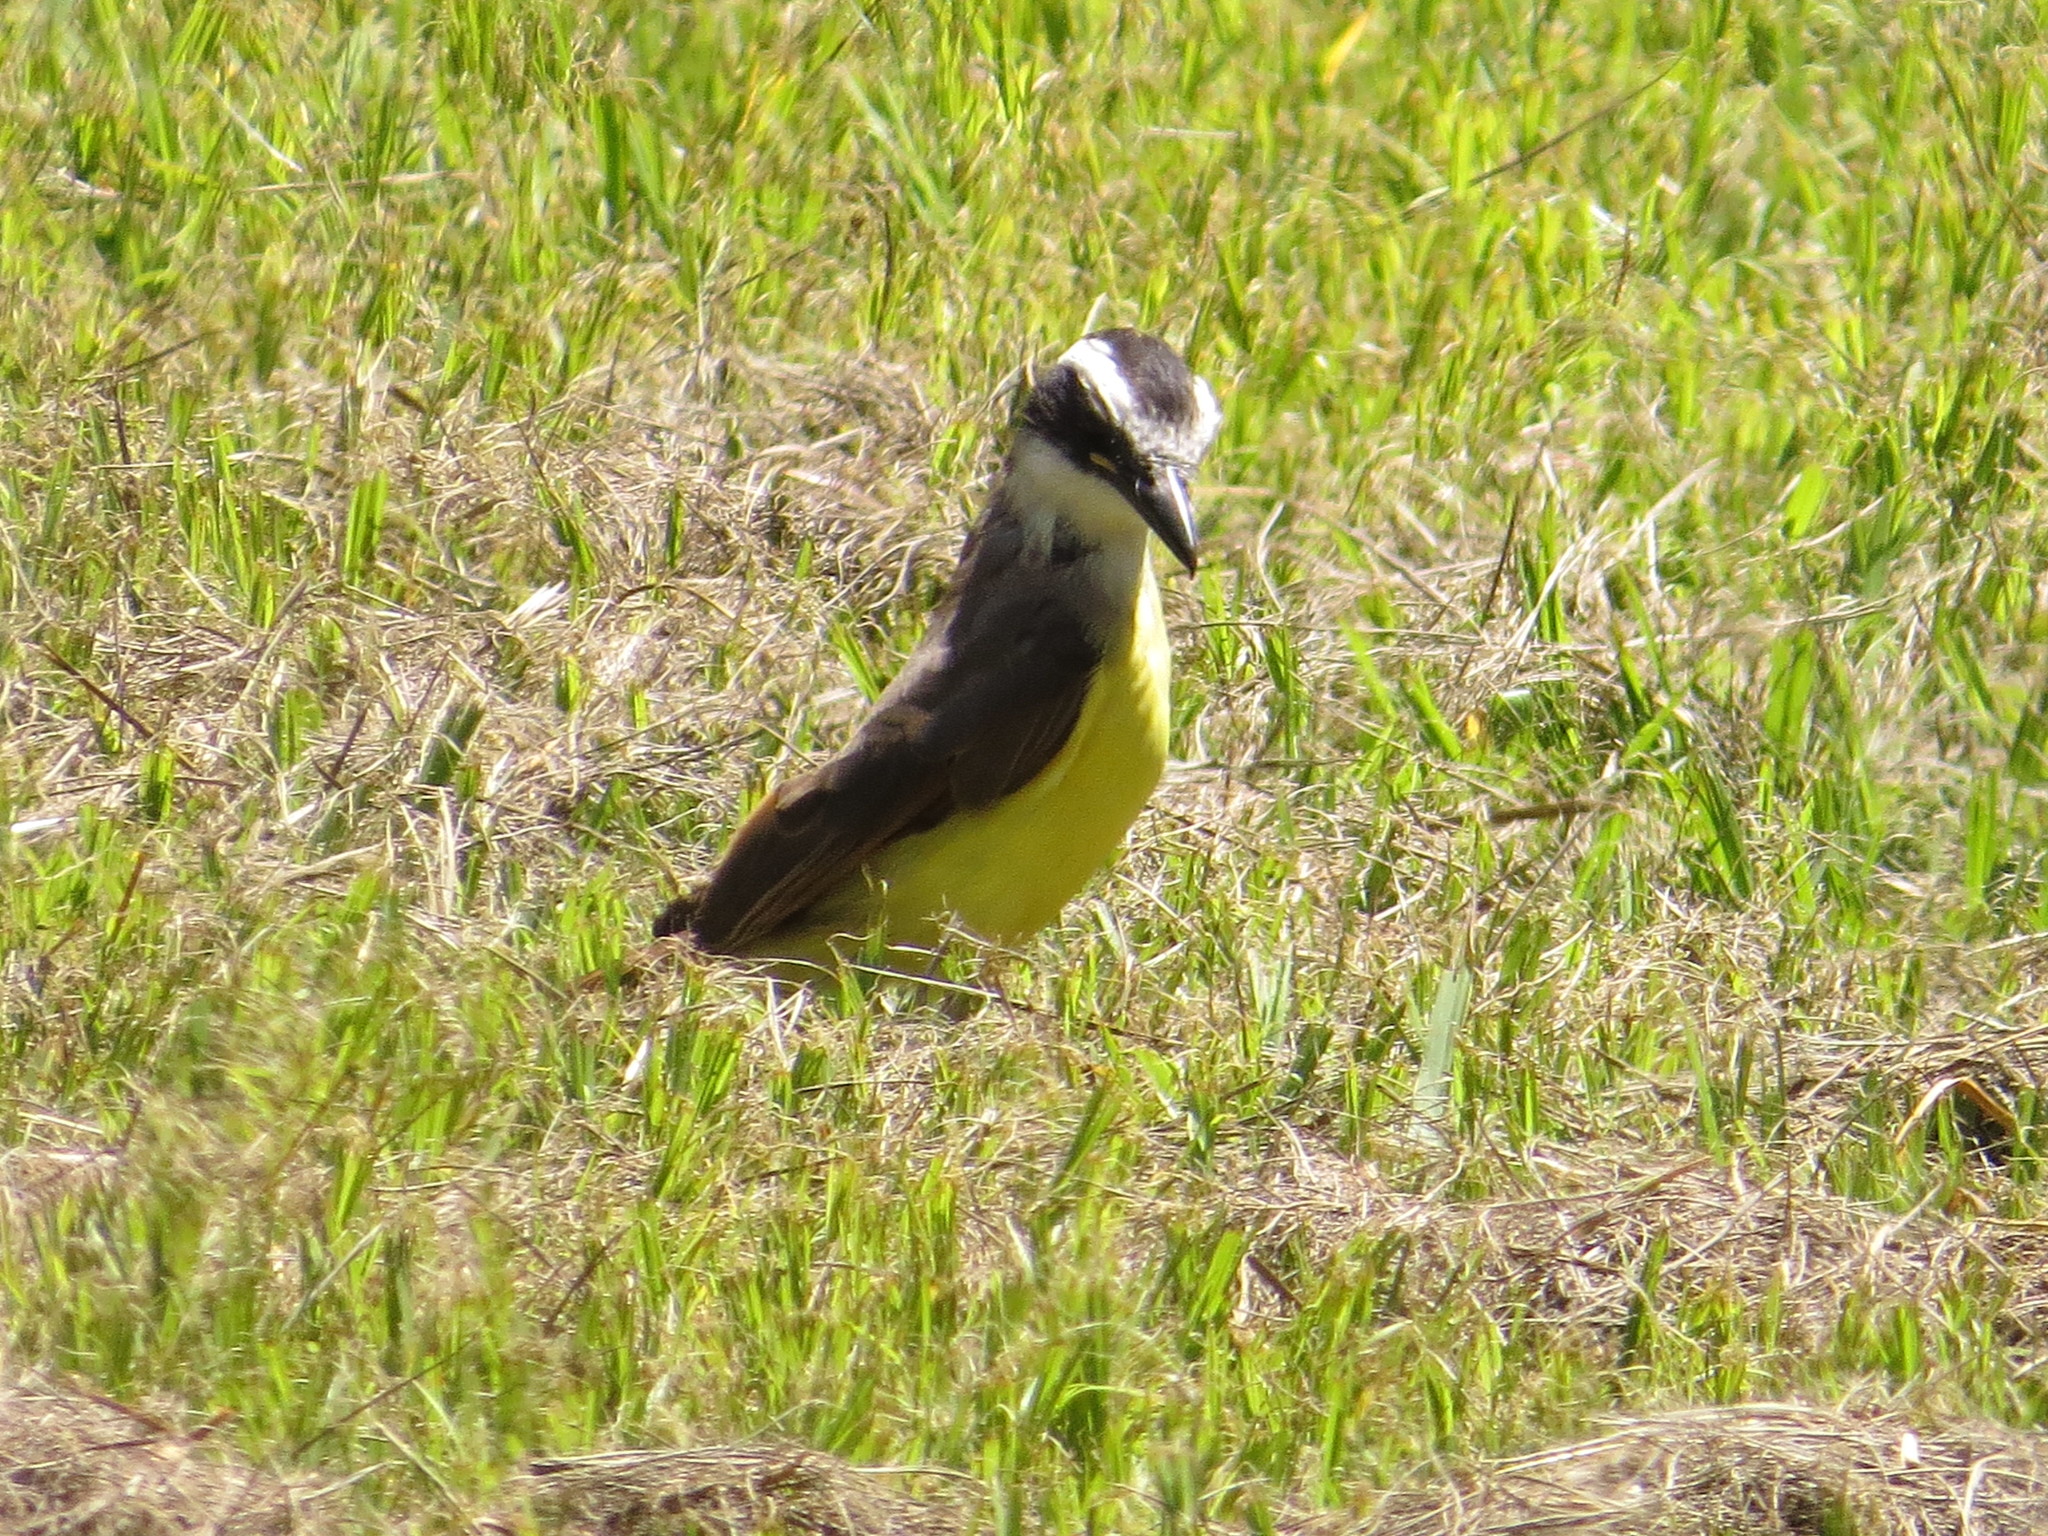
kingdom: Animalia
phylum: Chordata
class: Aves
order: Passeriformes
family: Tyrannidae
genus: Pitangus
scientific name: Pitangus sulphuratus
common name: Great kiskadee
